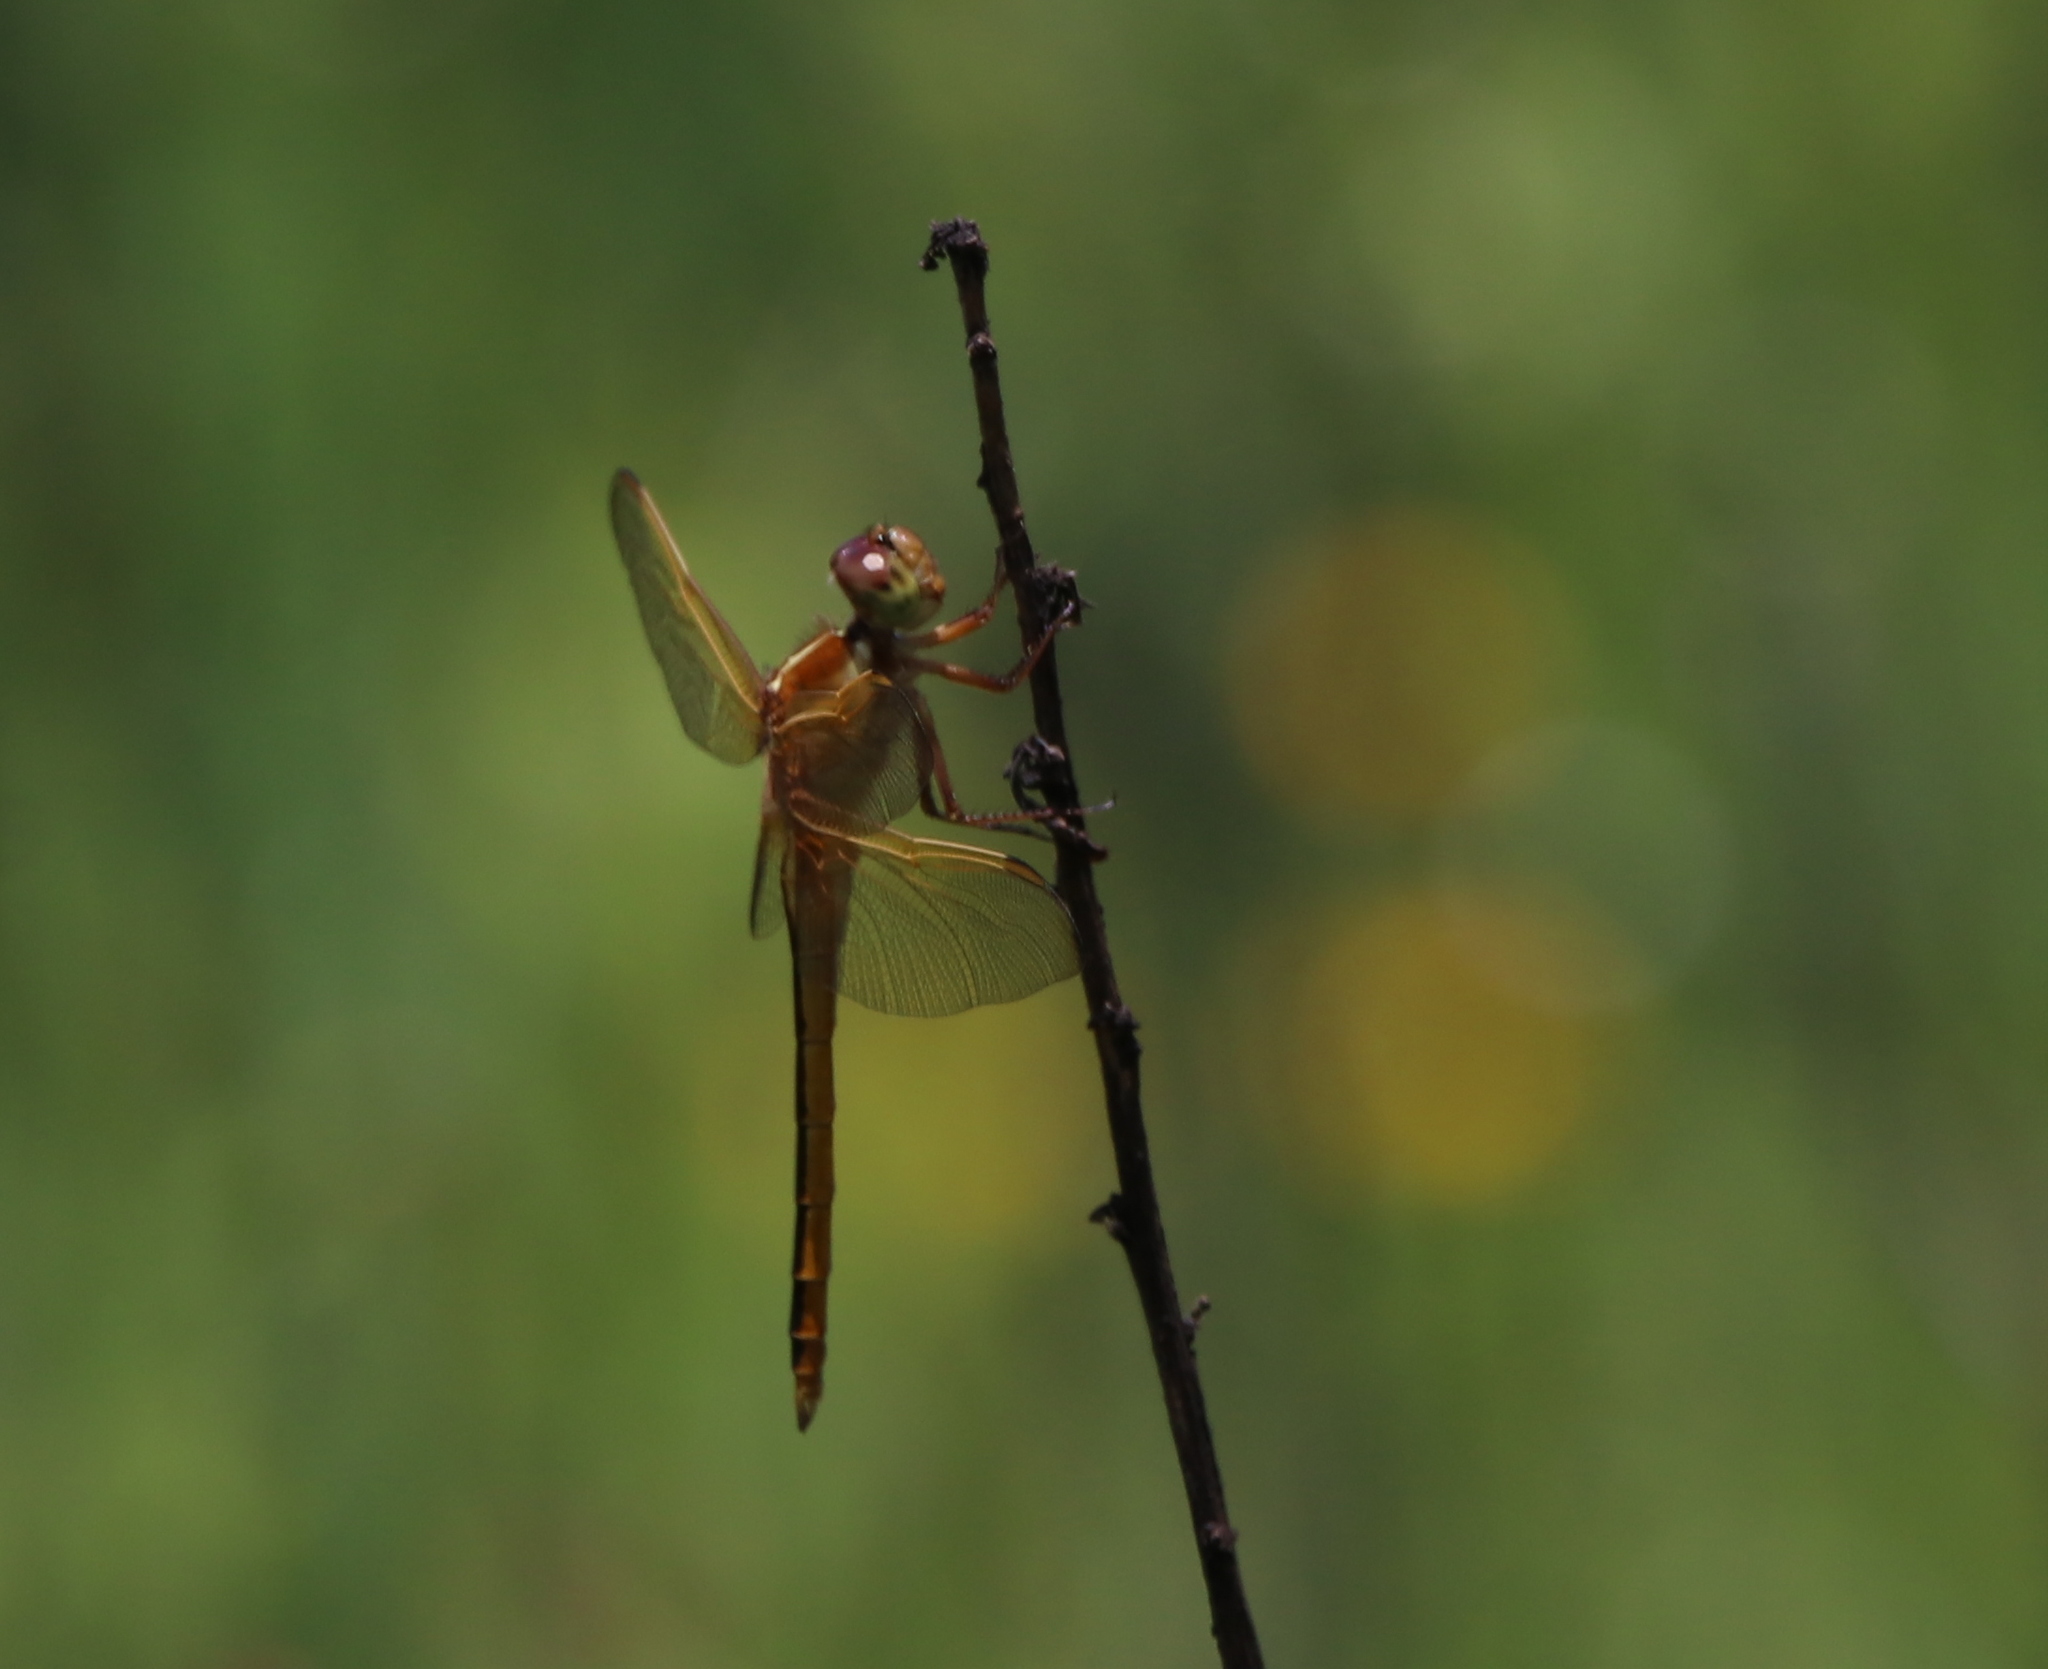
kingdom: Animalia
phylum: Arthropoda
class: Insecta
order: Odonata
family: Libellulidae
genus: Libellula
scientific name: Libellula needhami
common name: Needham's skimmer
